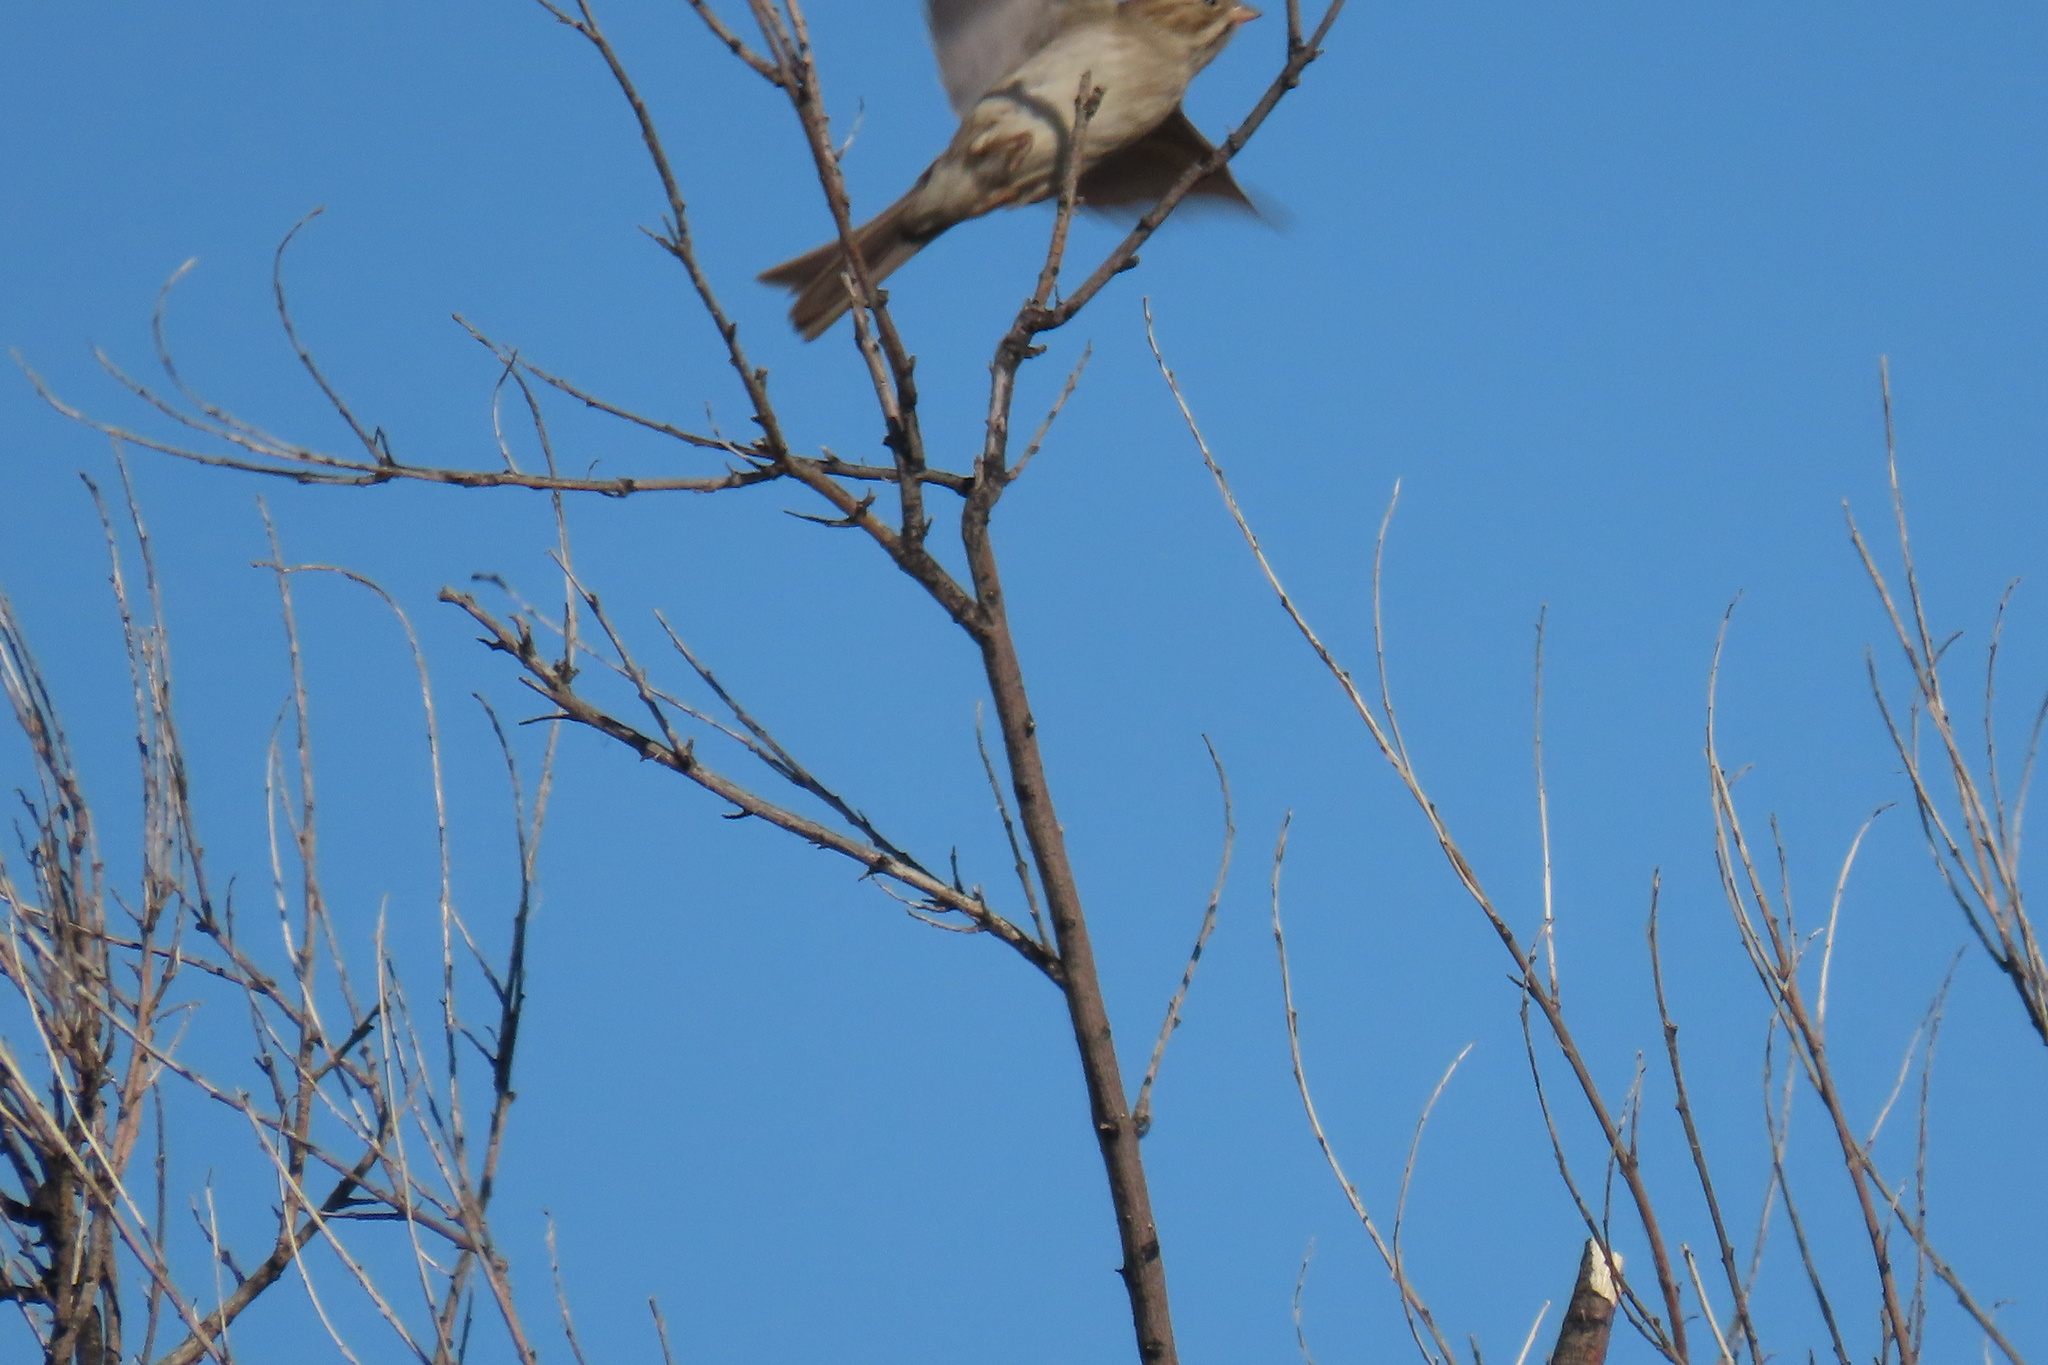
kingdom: Animalia
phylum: Chordata
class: Aves
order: Passeriformes
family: Passerellidae
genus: Spizella
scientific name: Spizella breweri
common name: Brewer's sparrow
